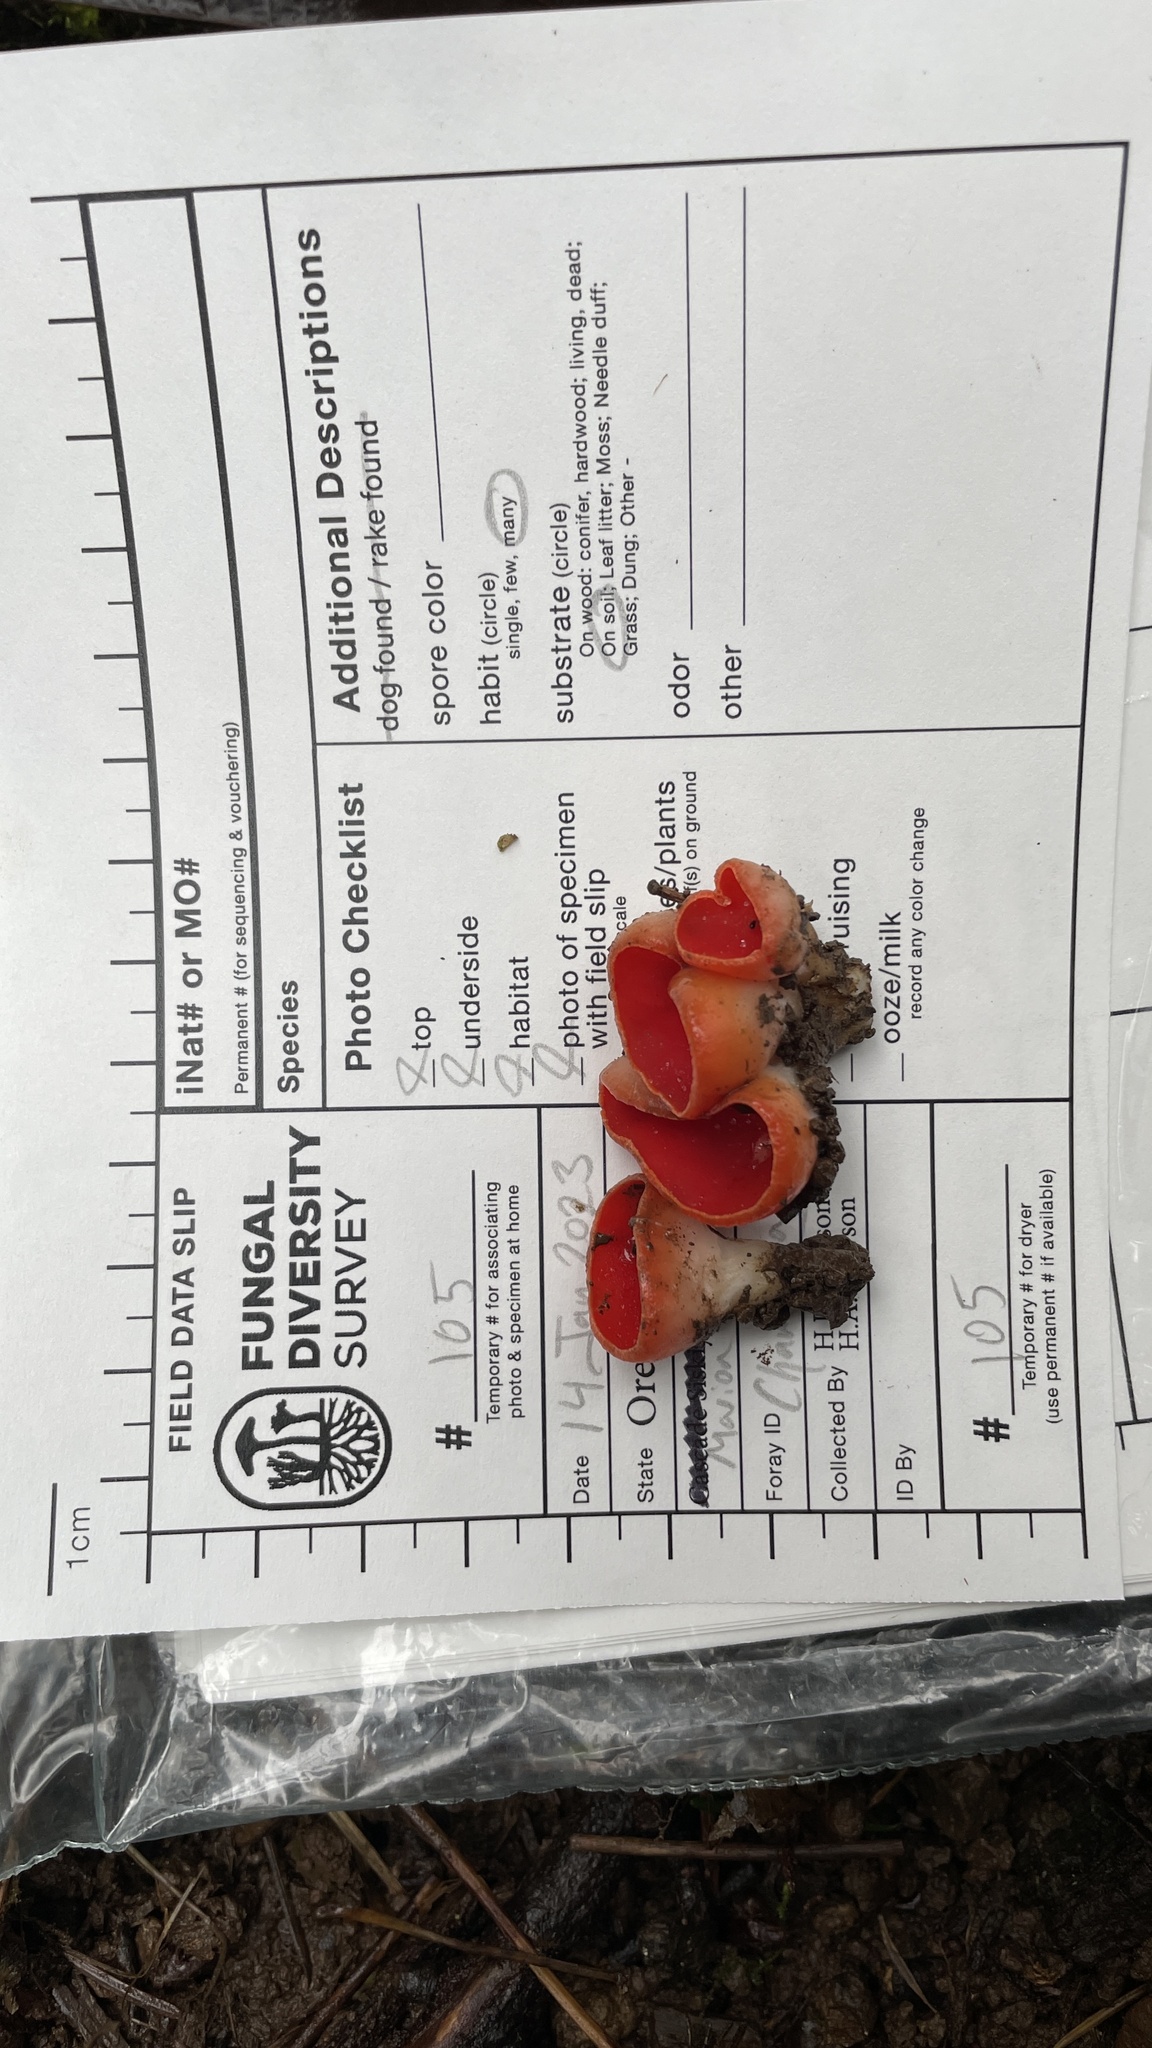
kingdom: Fungi
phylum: Ascomycota
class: Pezizomycetes
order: Pezizales
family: Sarcoscyphaceae
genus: Sarcoscypha
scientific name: Sarcoscypha coccinea
